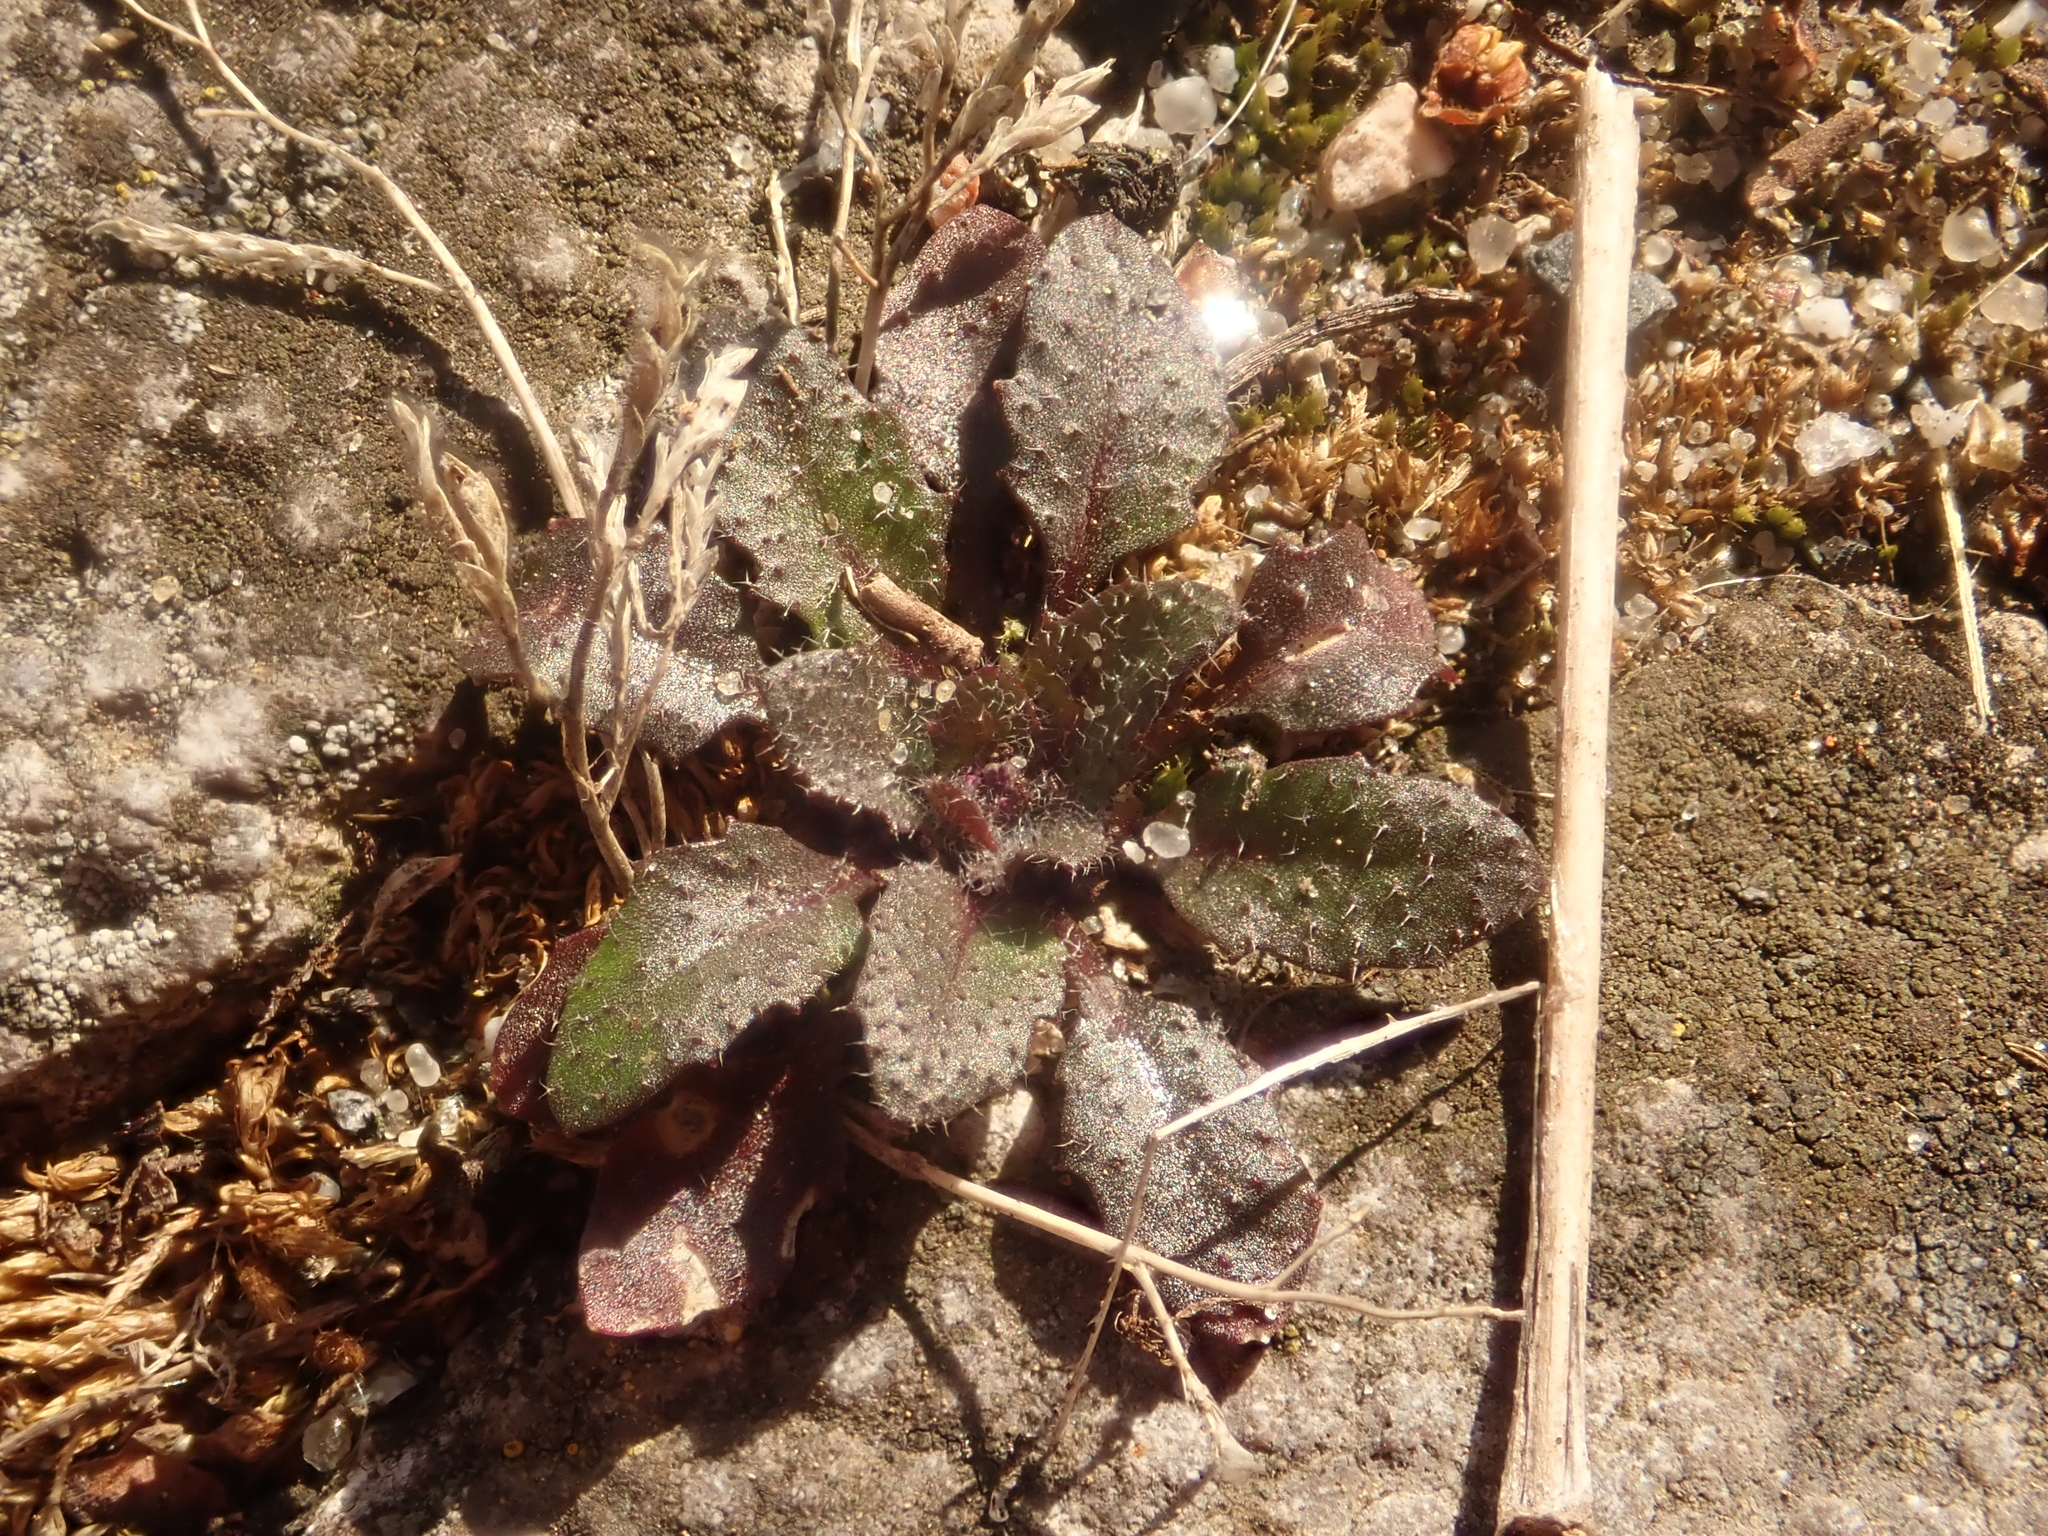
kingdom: Plantae
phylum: Tracheophyta
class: Magnoliopsida
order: Brassicales
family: Brassicaceae
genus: Draba
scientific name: Draba verna
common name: Spring draba
